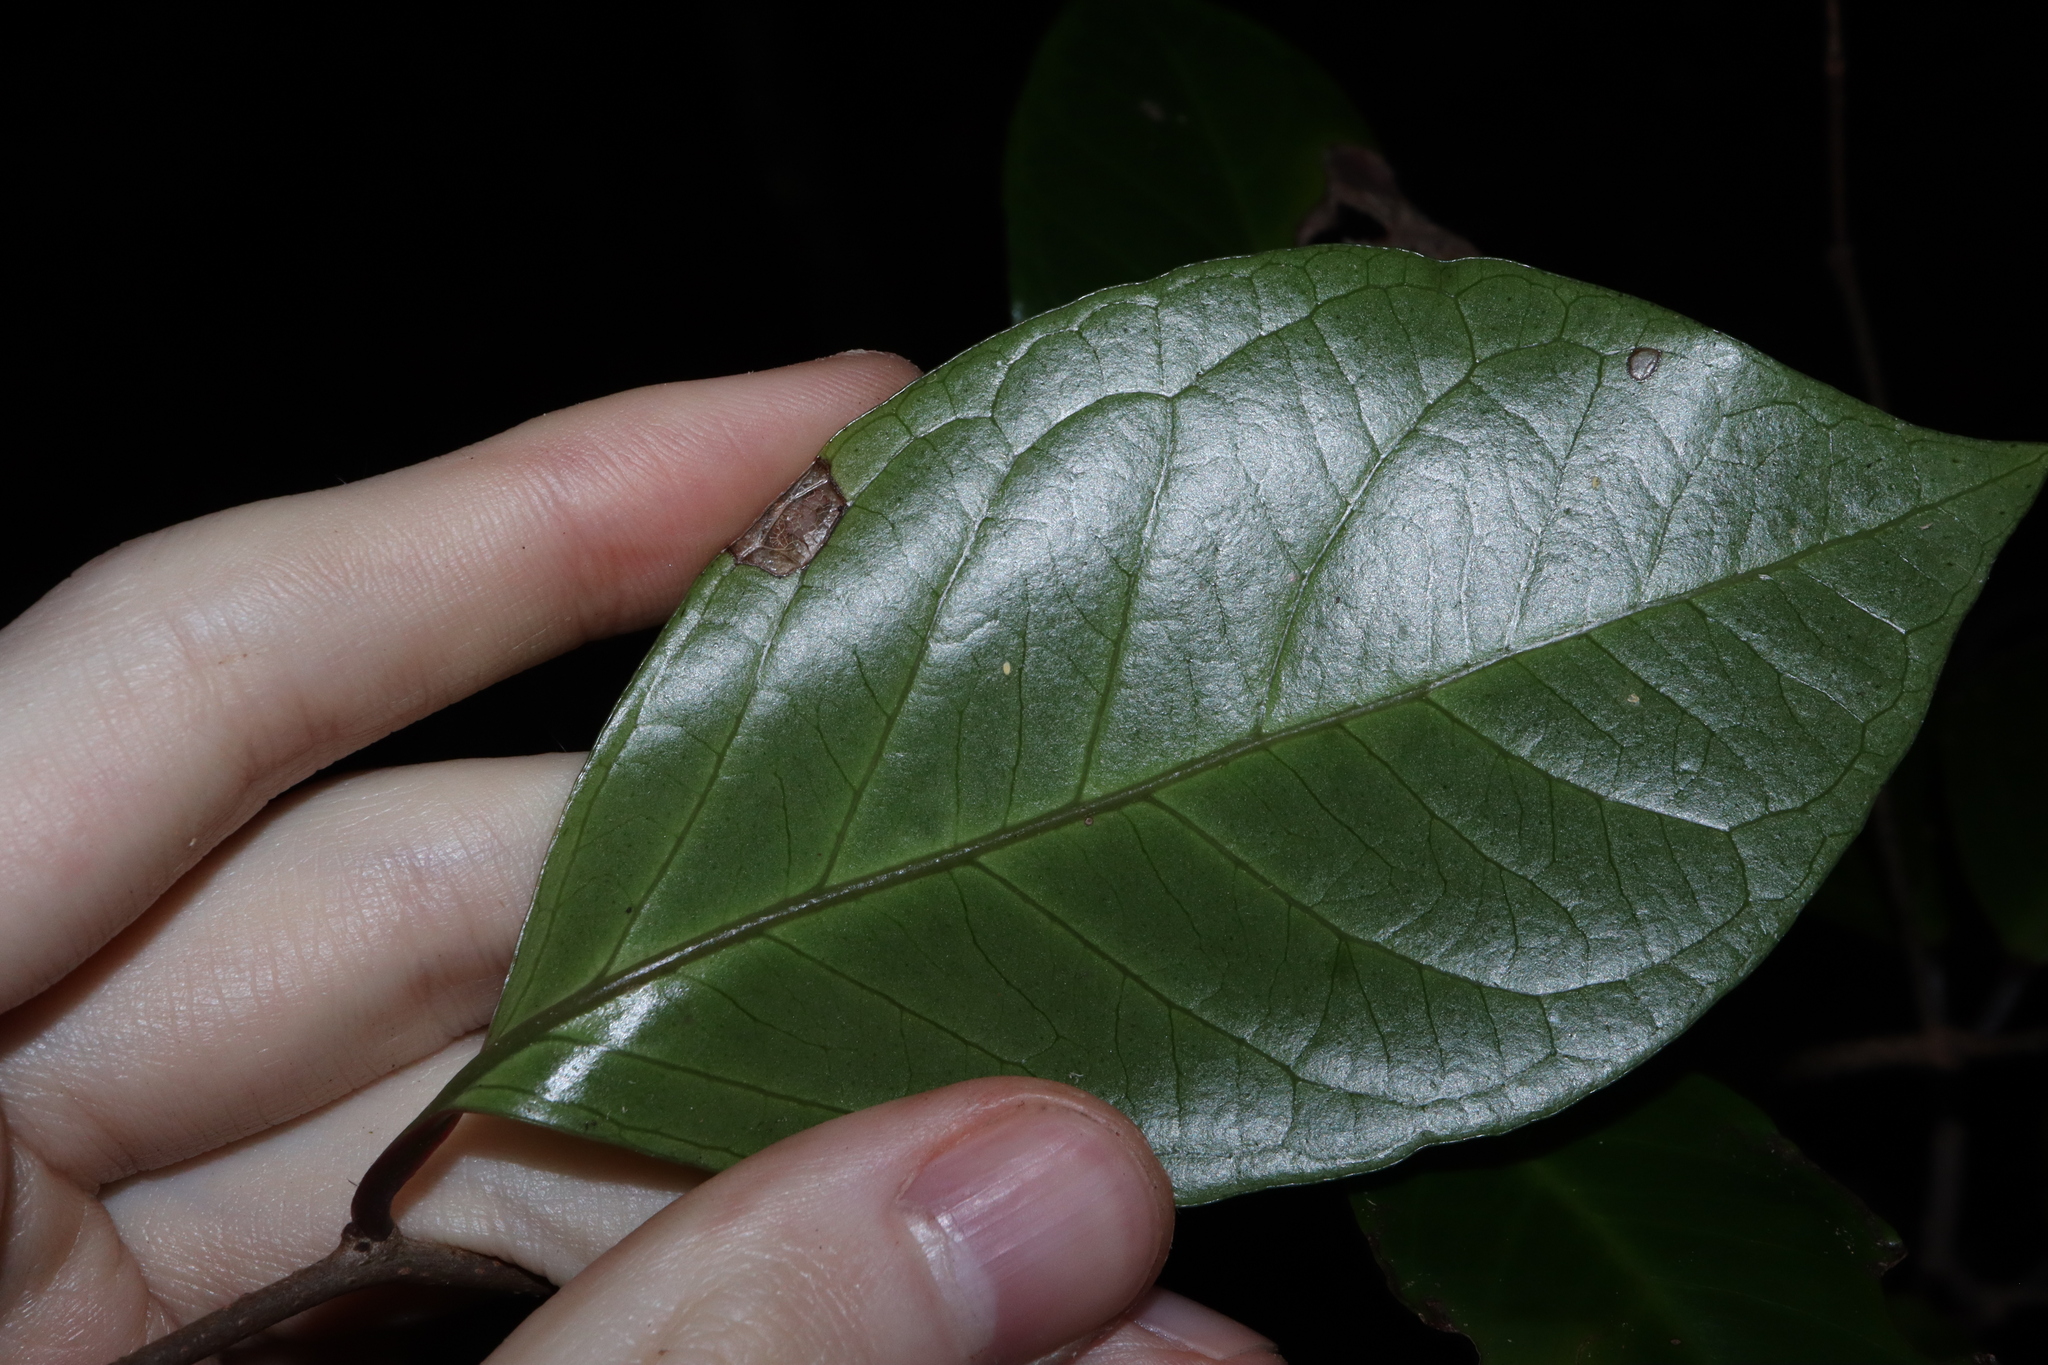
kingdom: Plantae
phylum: Tracheophyta
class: Magnoliopsida
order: Ericales
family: Primulaceae
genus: Embelia
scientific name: Embelia australiana
